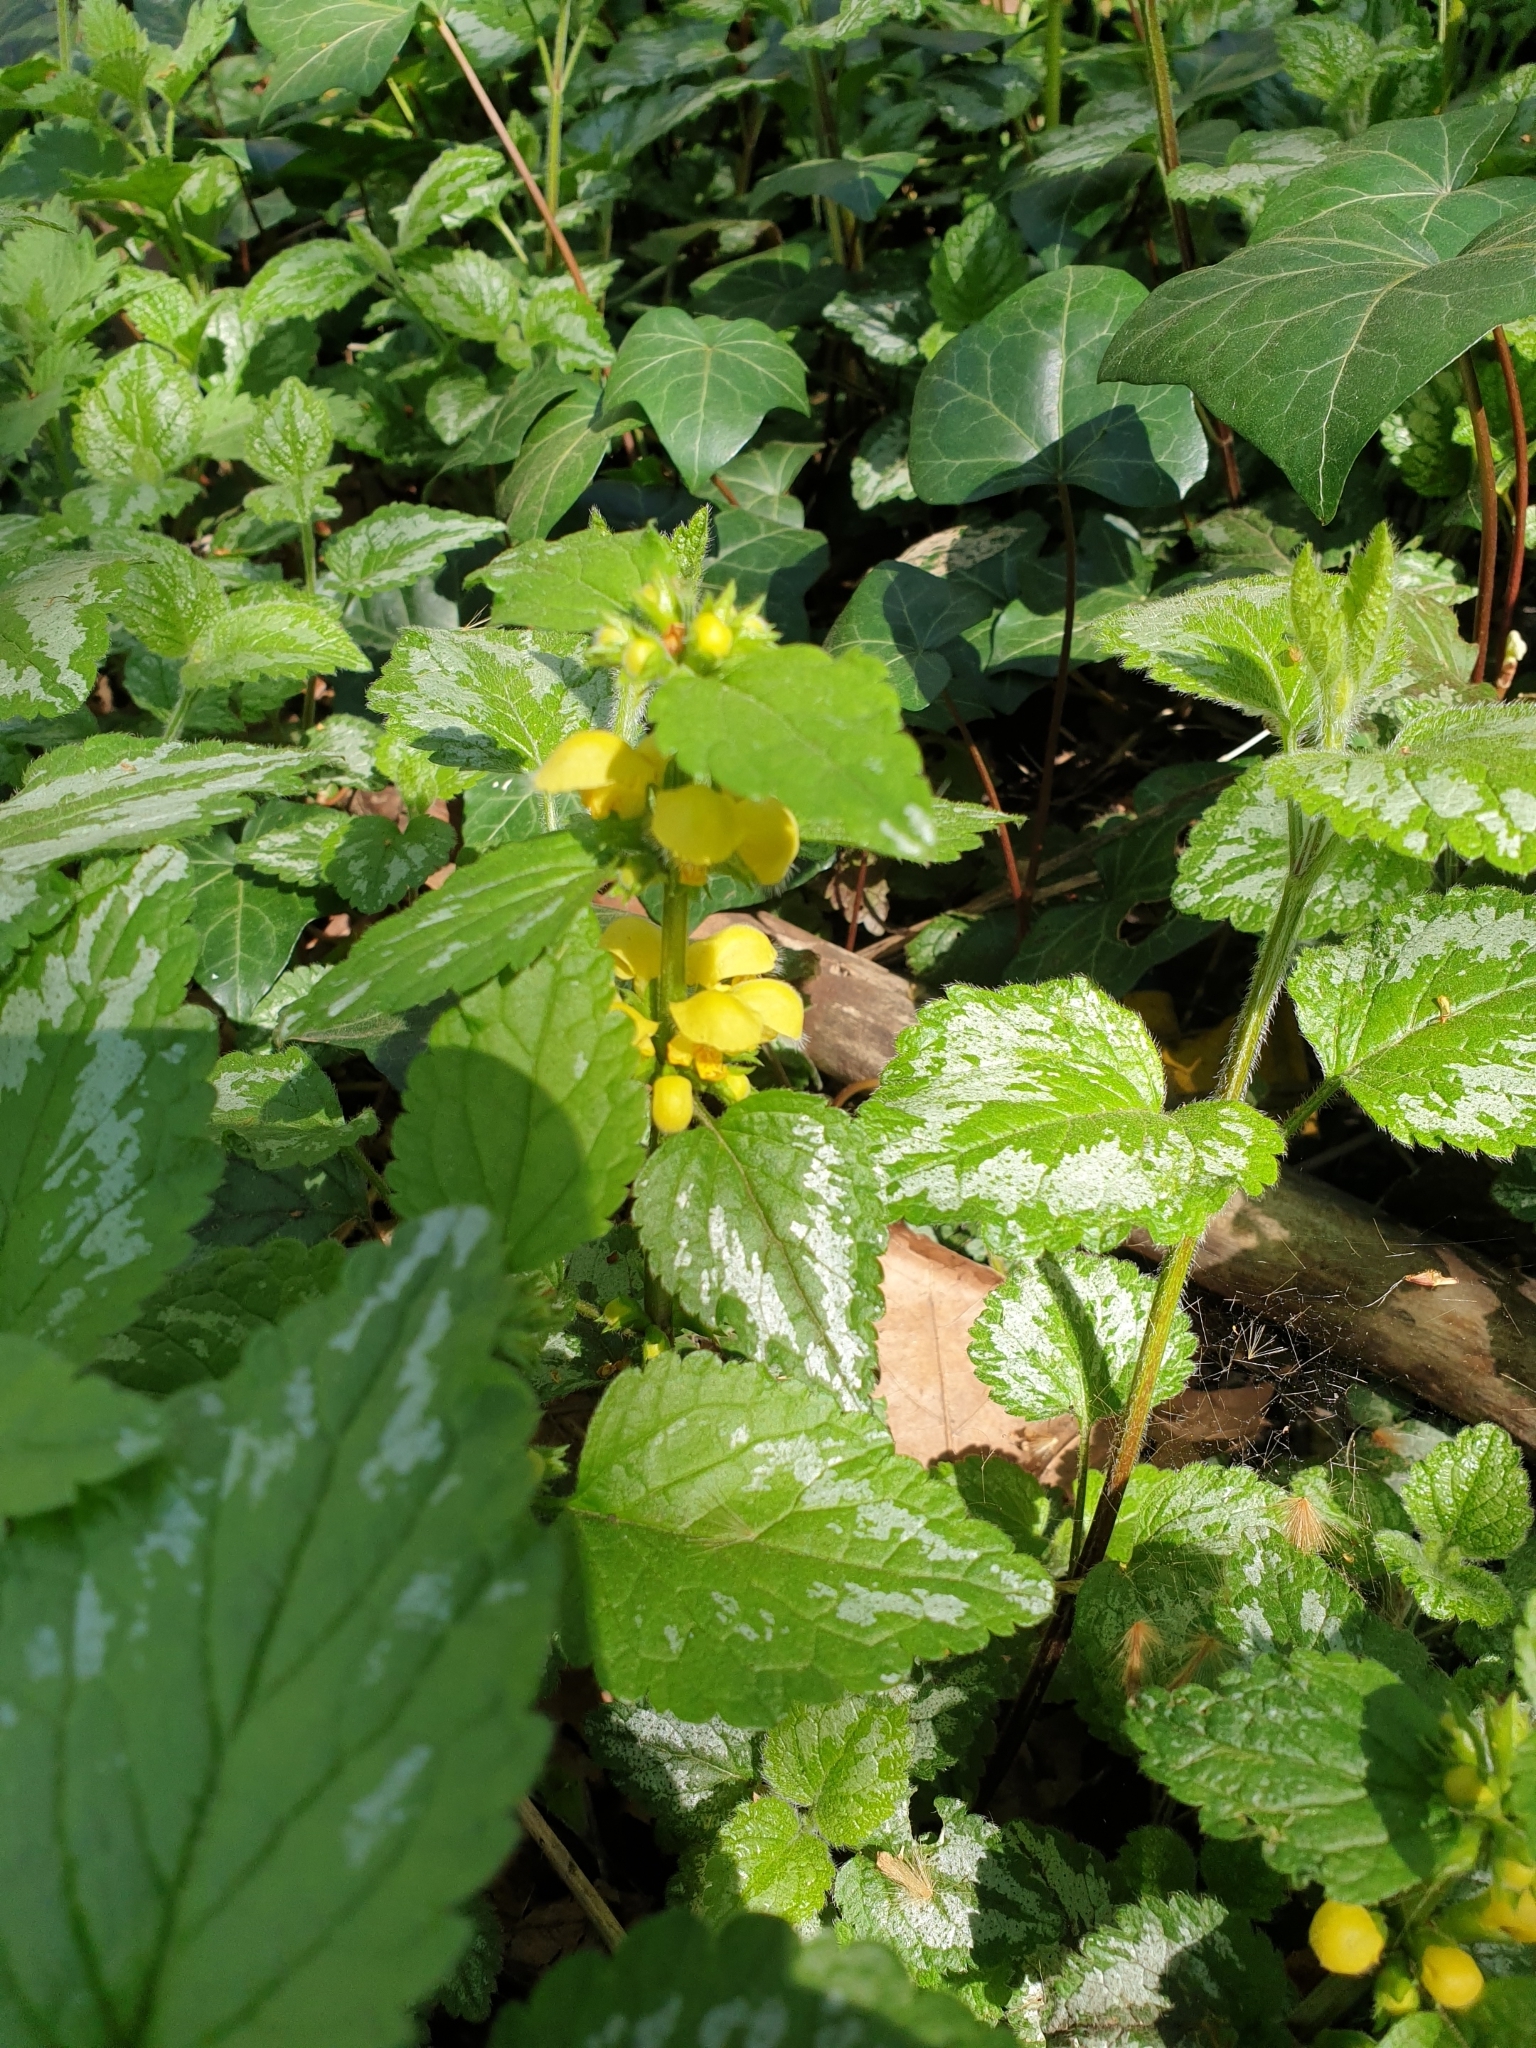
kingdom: Plantae
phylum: Tracheophyta
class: Magnoliopsida
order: Lamiales
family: Lamiaceae
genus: Lamium
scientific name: Lamium galeobdolon
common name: Yellow archangel
